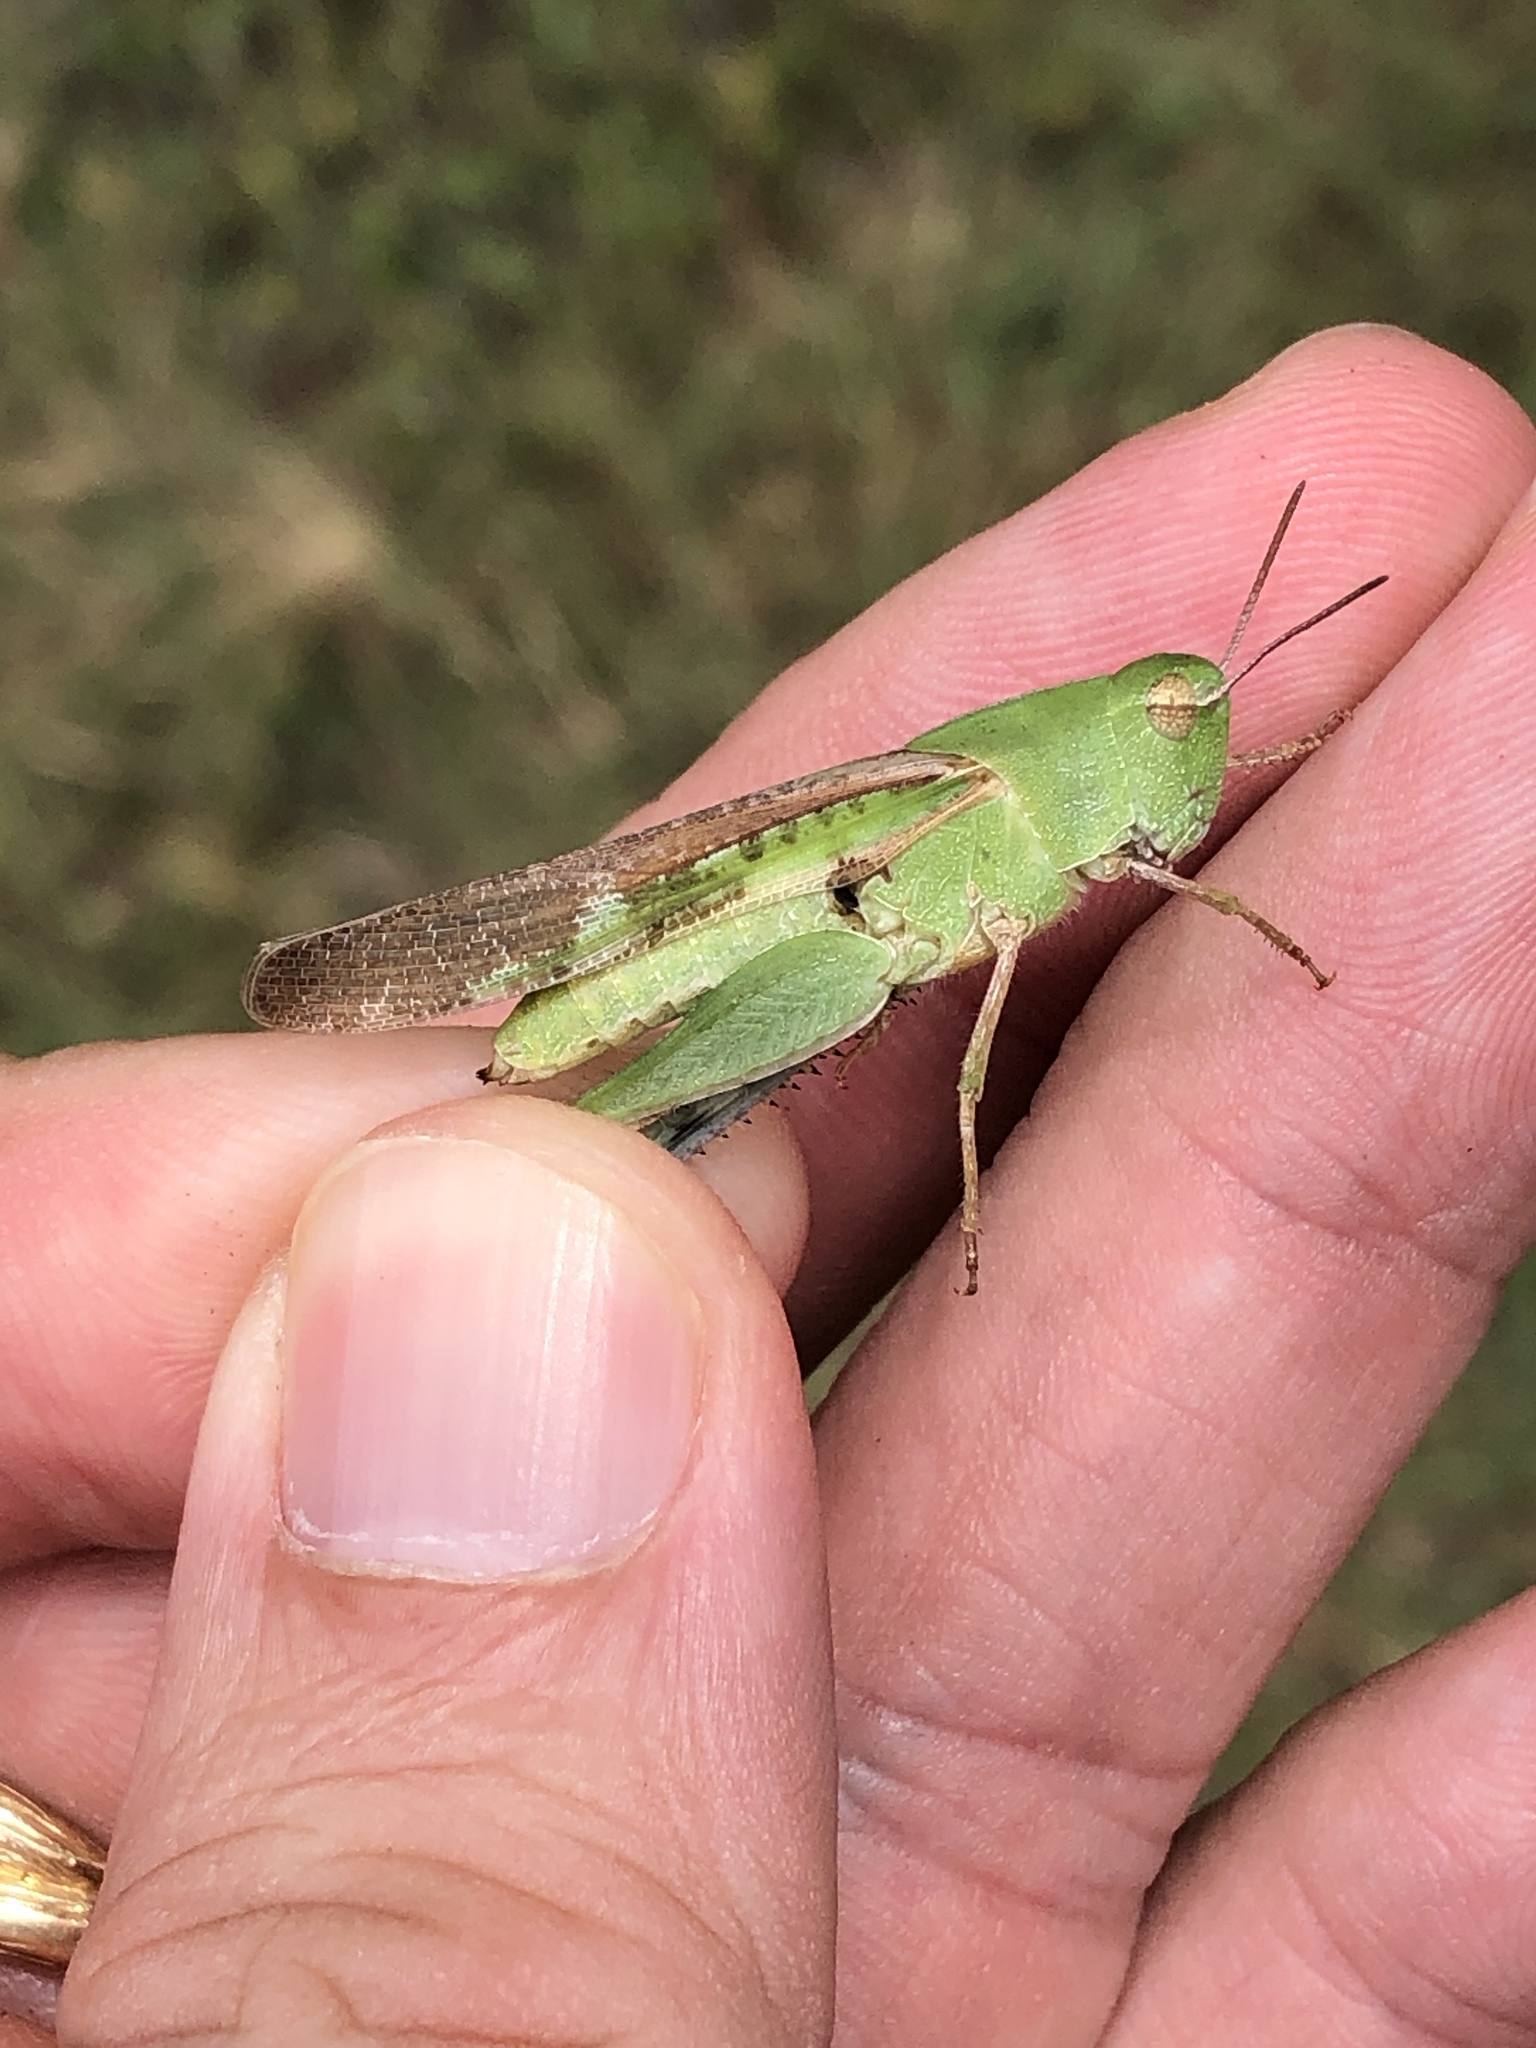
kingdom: Animalia
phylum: Arthropoda
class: Insecta
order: Orthoptera
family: Acrididae
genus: Chortophaga
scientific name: Chortophaga viridifasciata
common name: Green-striped grasshopper
